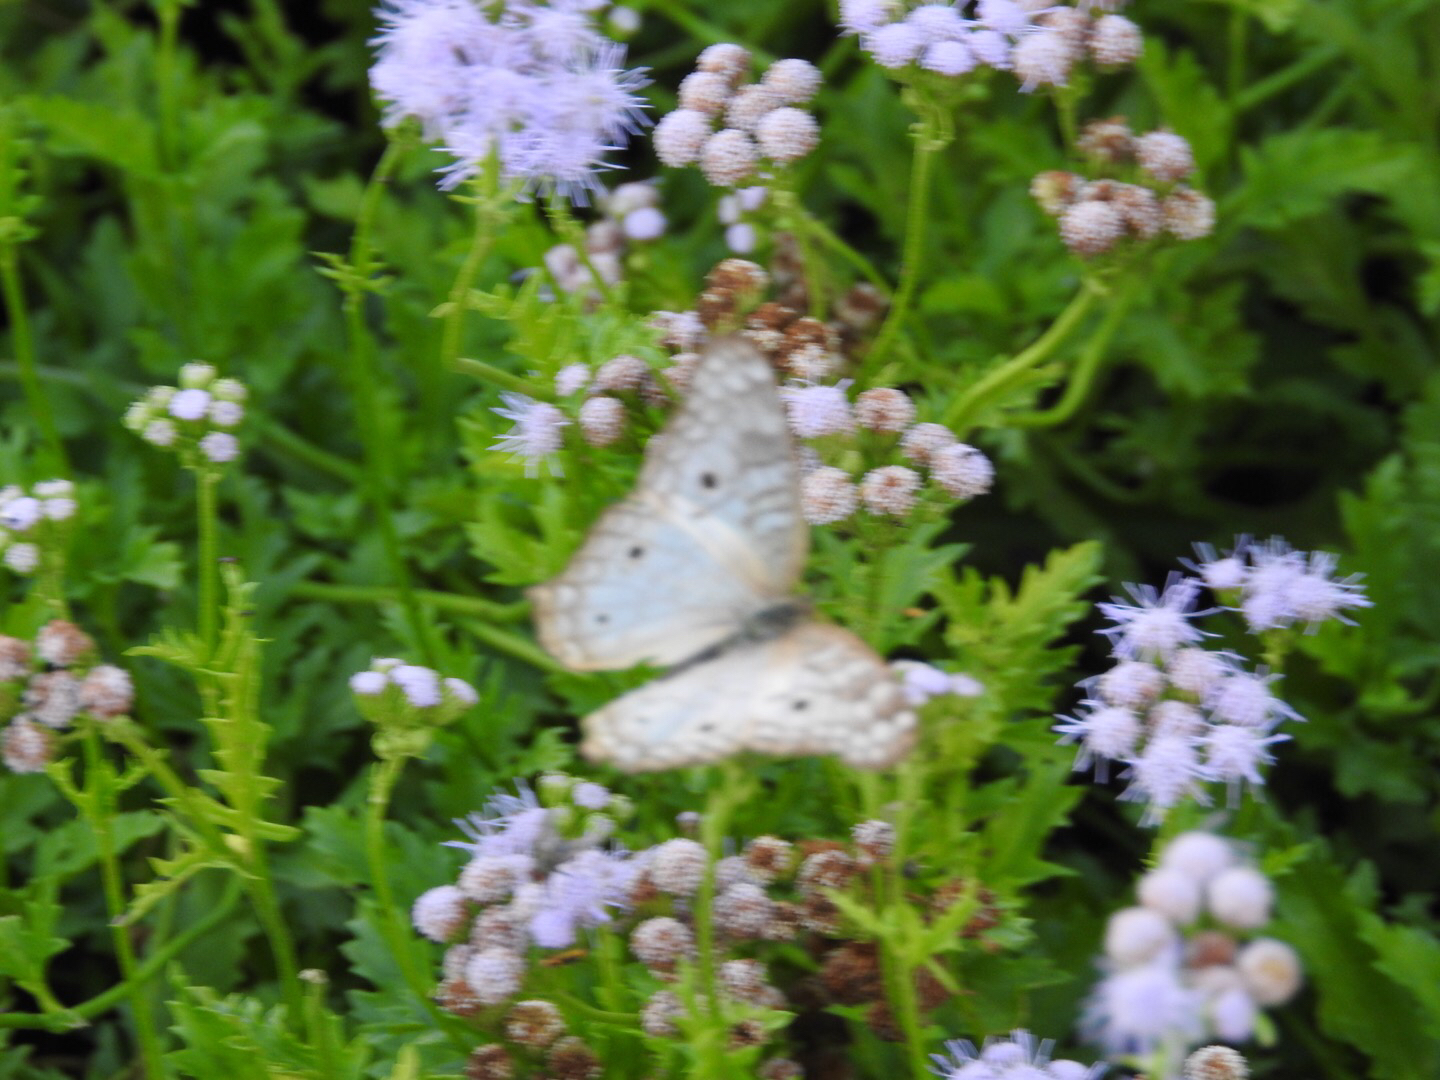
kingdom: Animalia
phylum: Arthropoda
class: Insecta
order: Lepidoptera
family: Nymphalidae
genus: Anartia
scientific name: Anartia jatrophae
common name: White peacock
